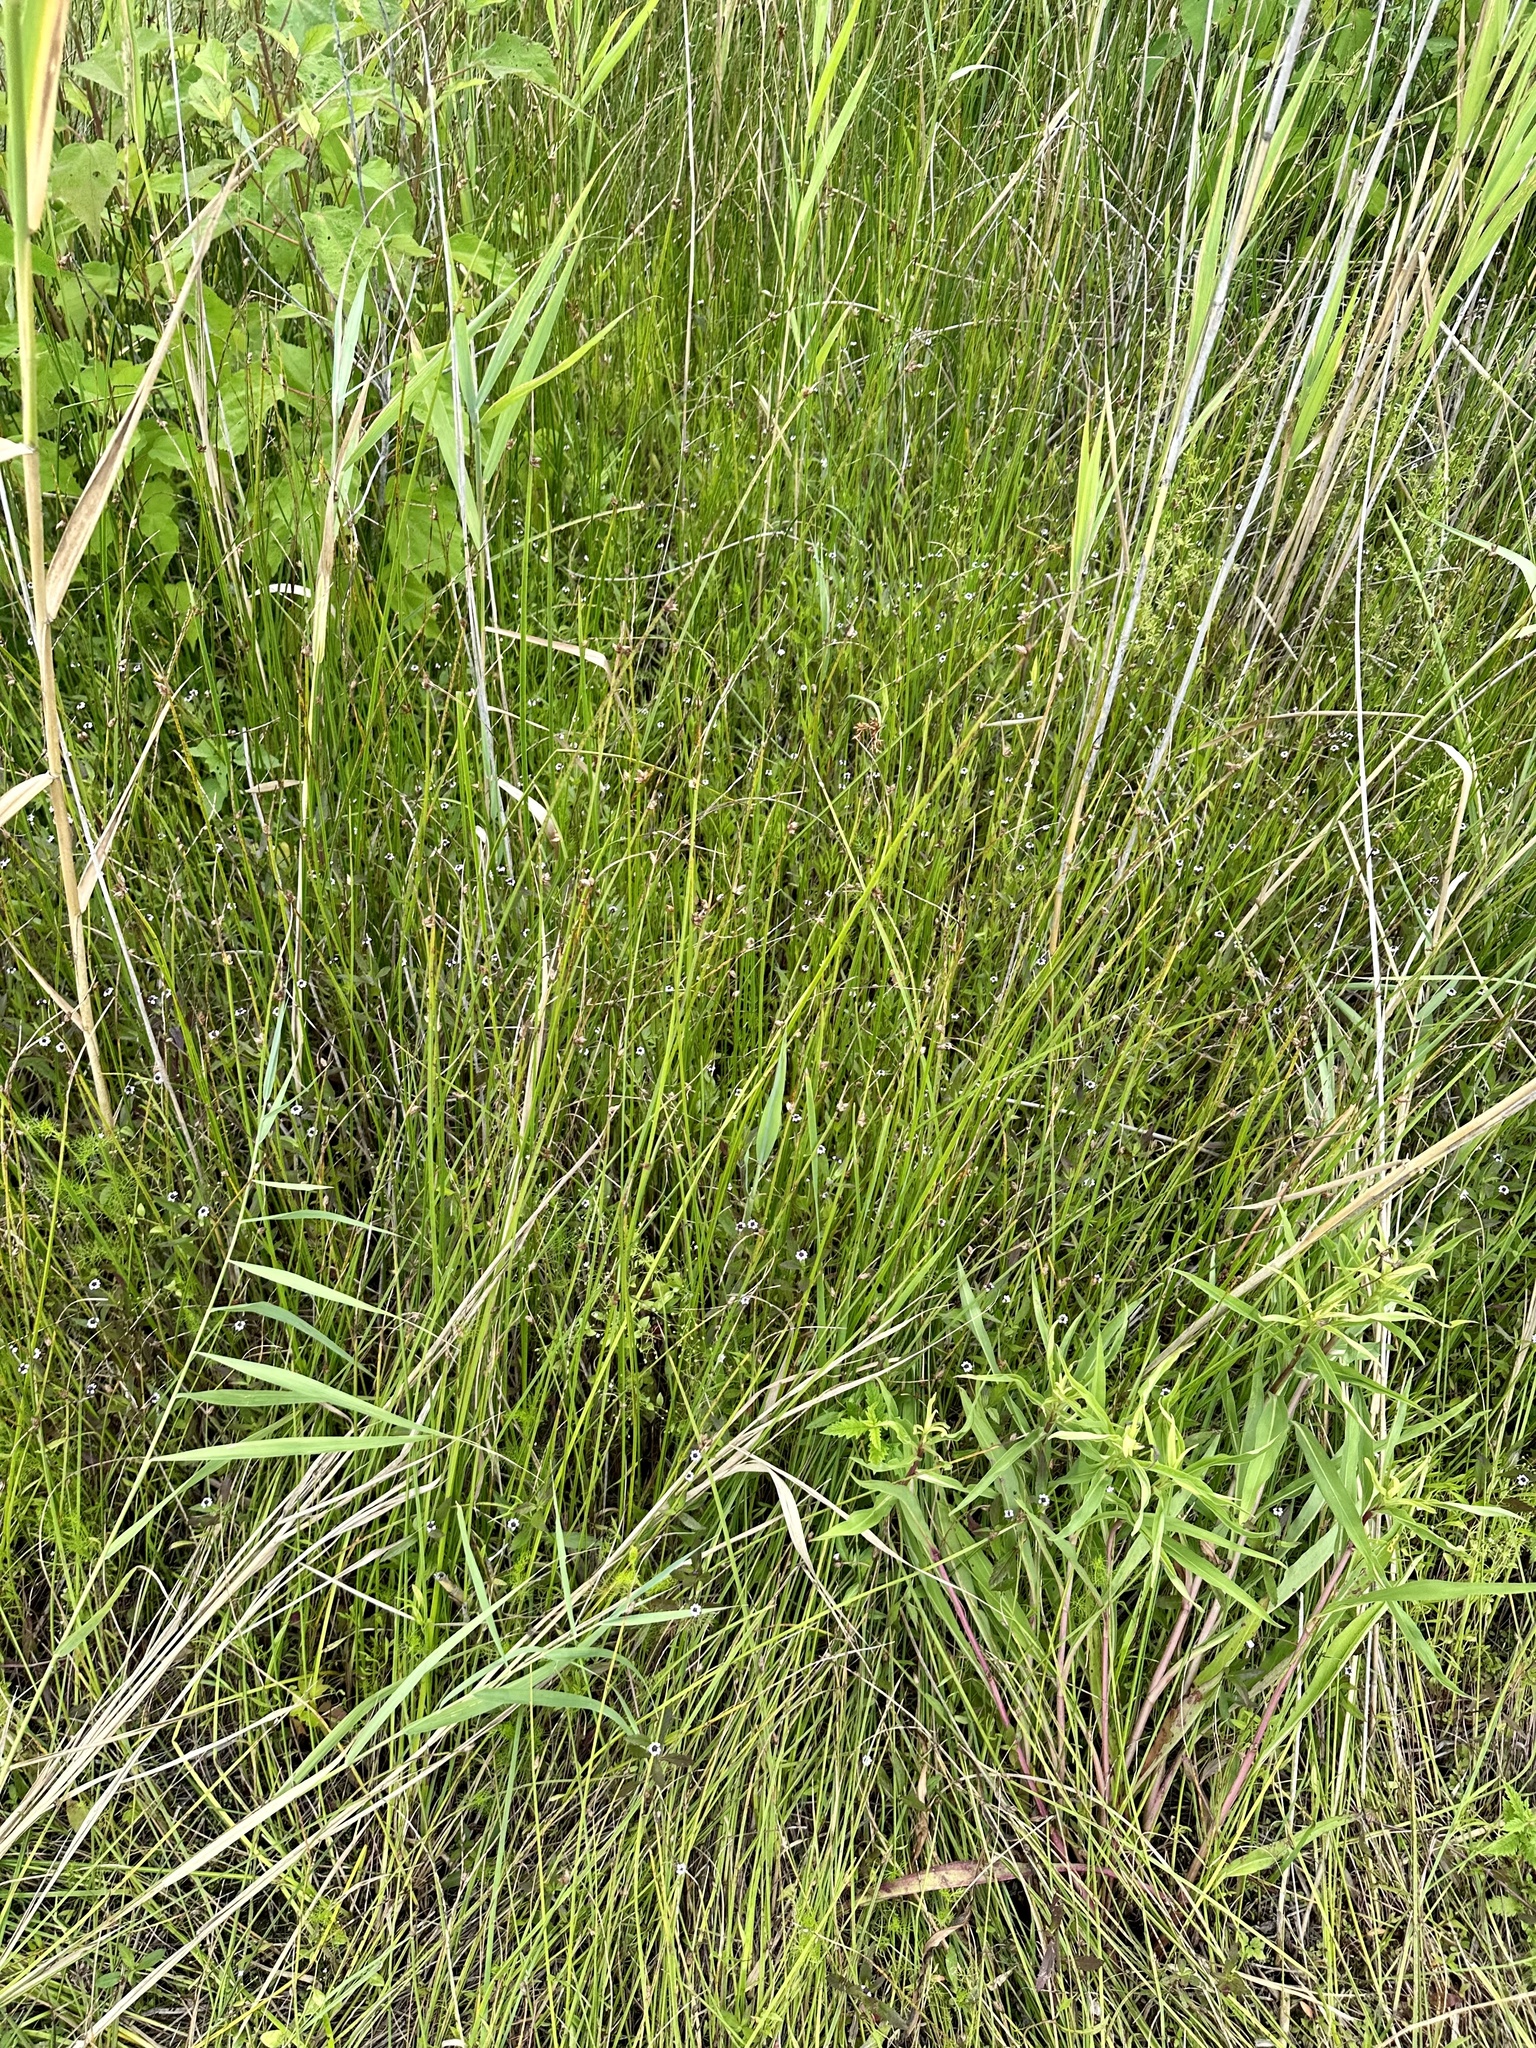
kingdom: Plantae
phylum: Tracheophyta
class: Magnoliopsida
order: Lamiales
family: Verbenaceae
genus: Phyla
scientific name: Phyla lanceolata
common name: Northern fogfruit
